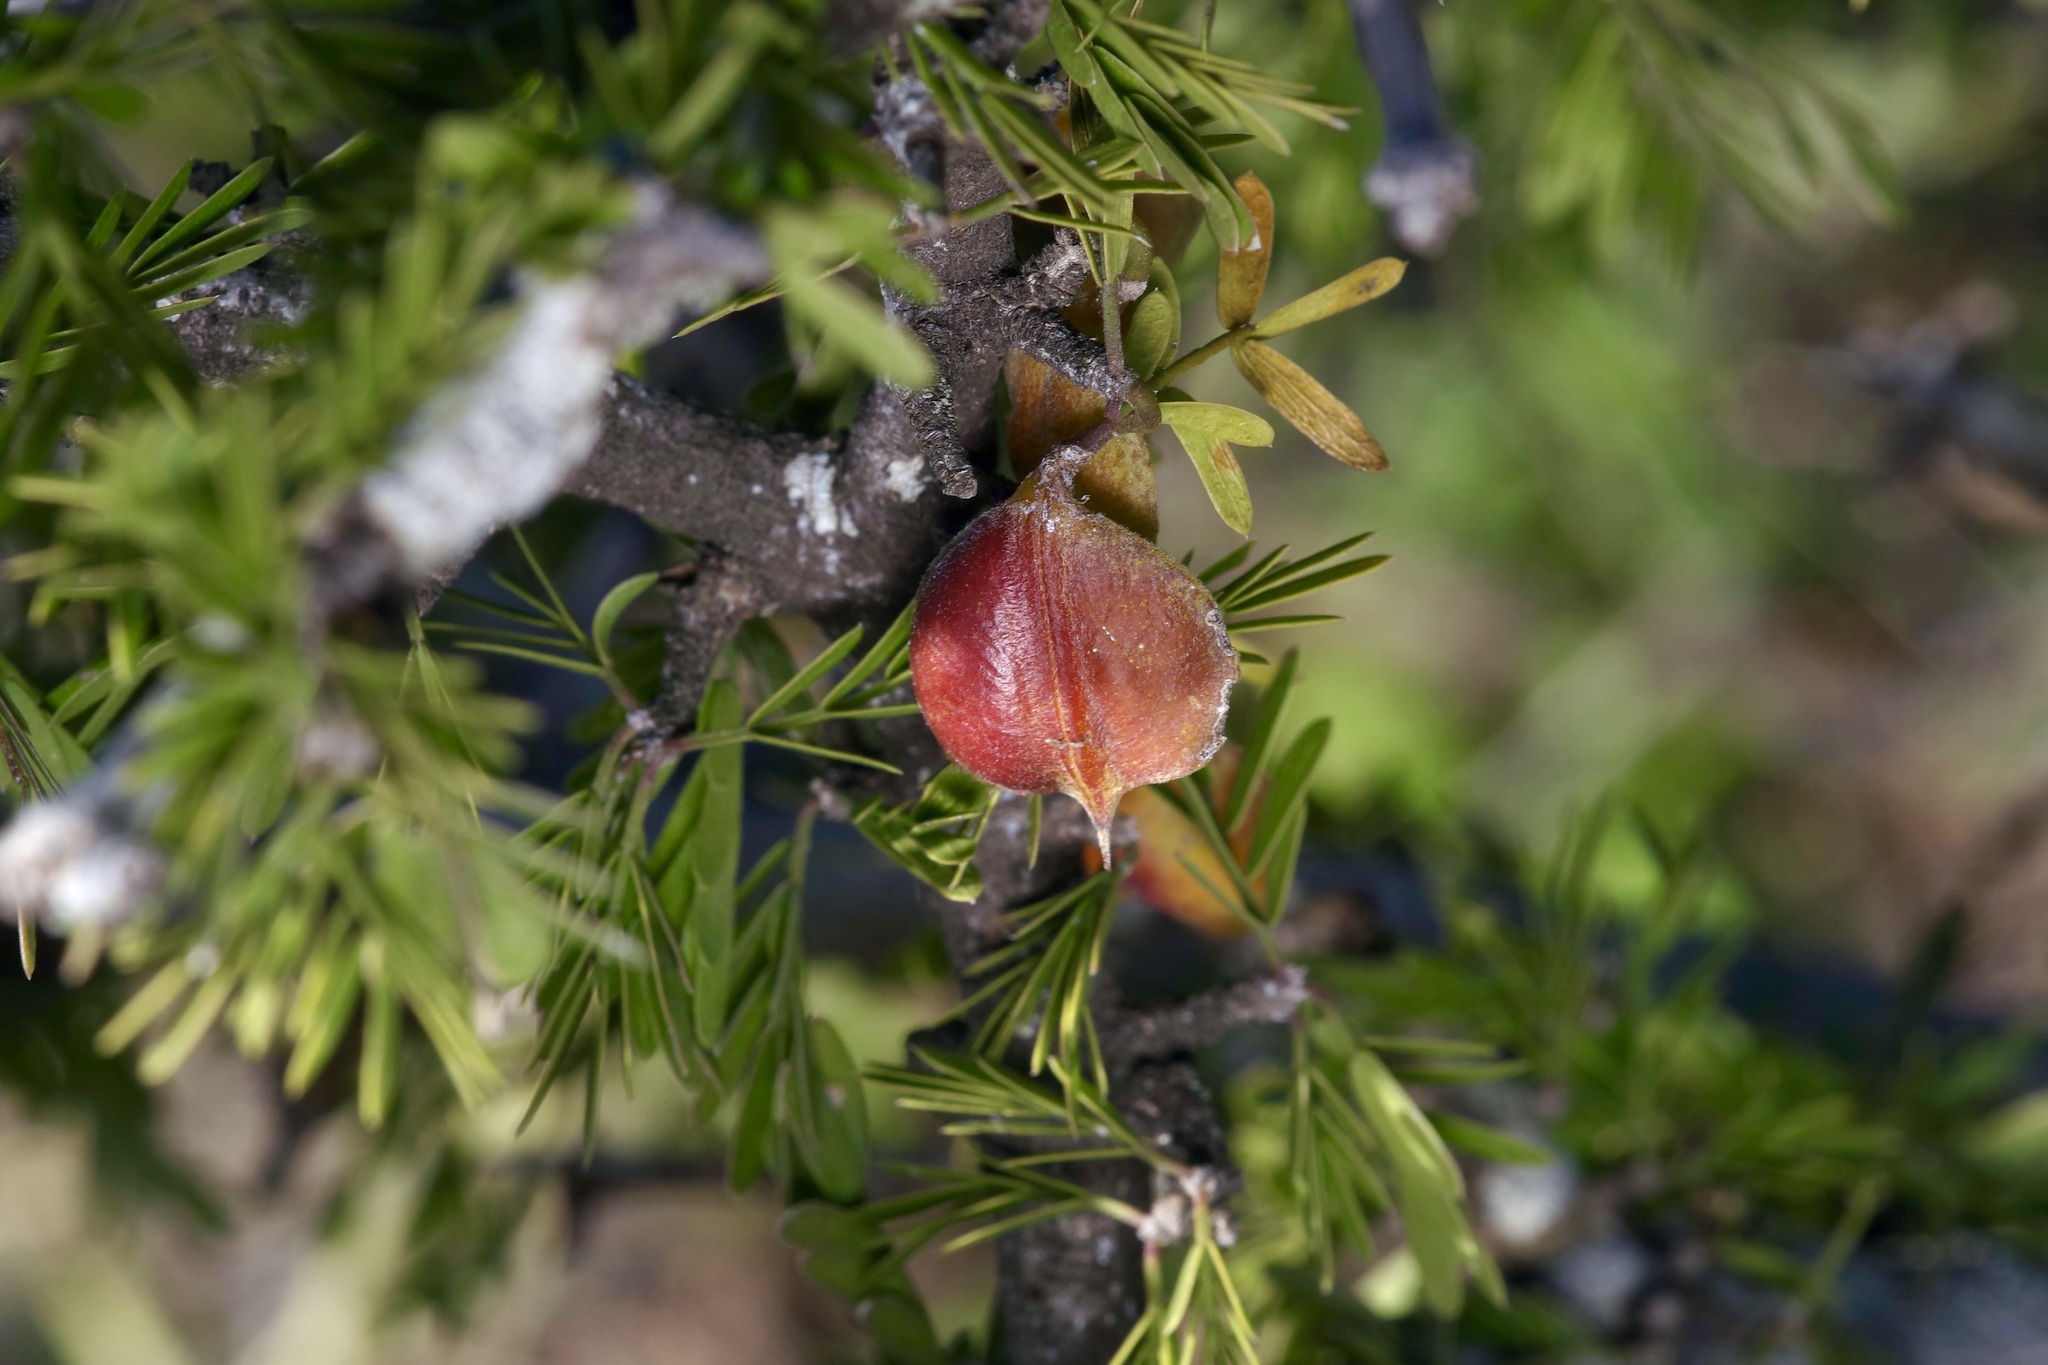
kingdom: Plantae
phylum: Tracheophyta
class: Magnoliopsida
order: Zygophyllales
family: Zygophyllaceae
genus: Porlieria
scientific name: Porlieria angustifolia
